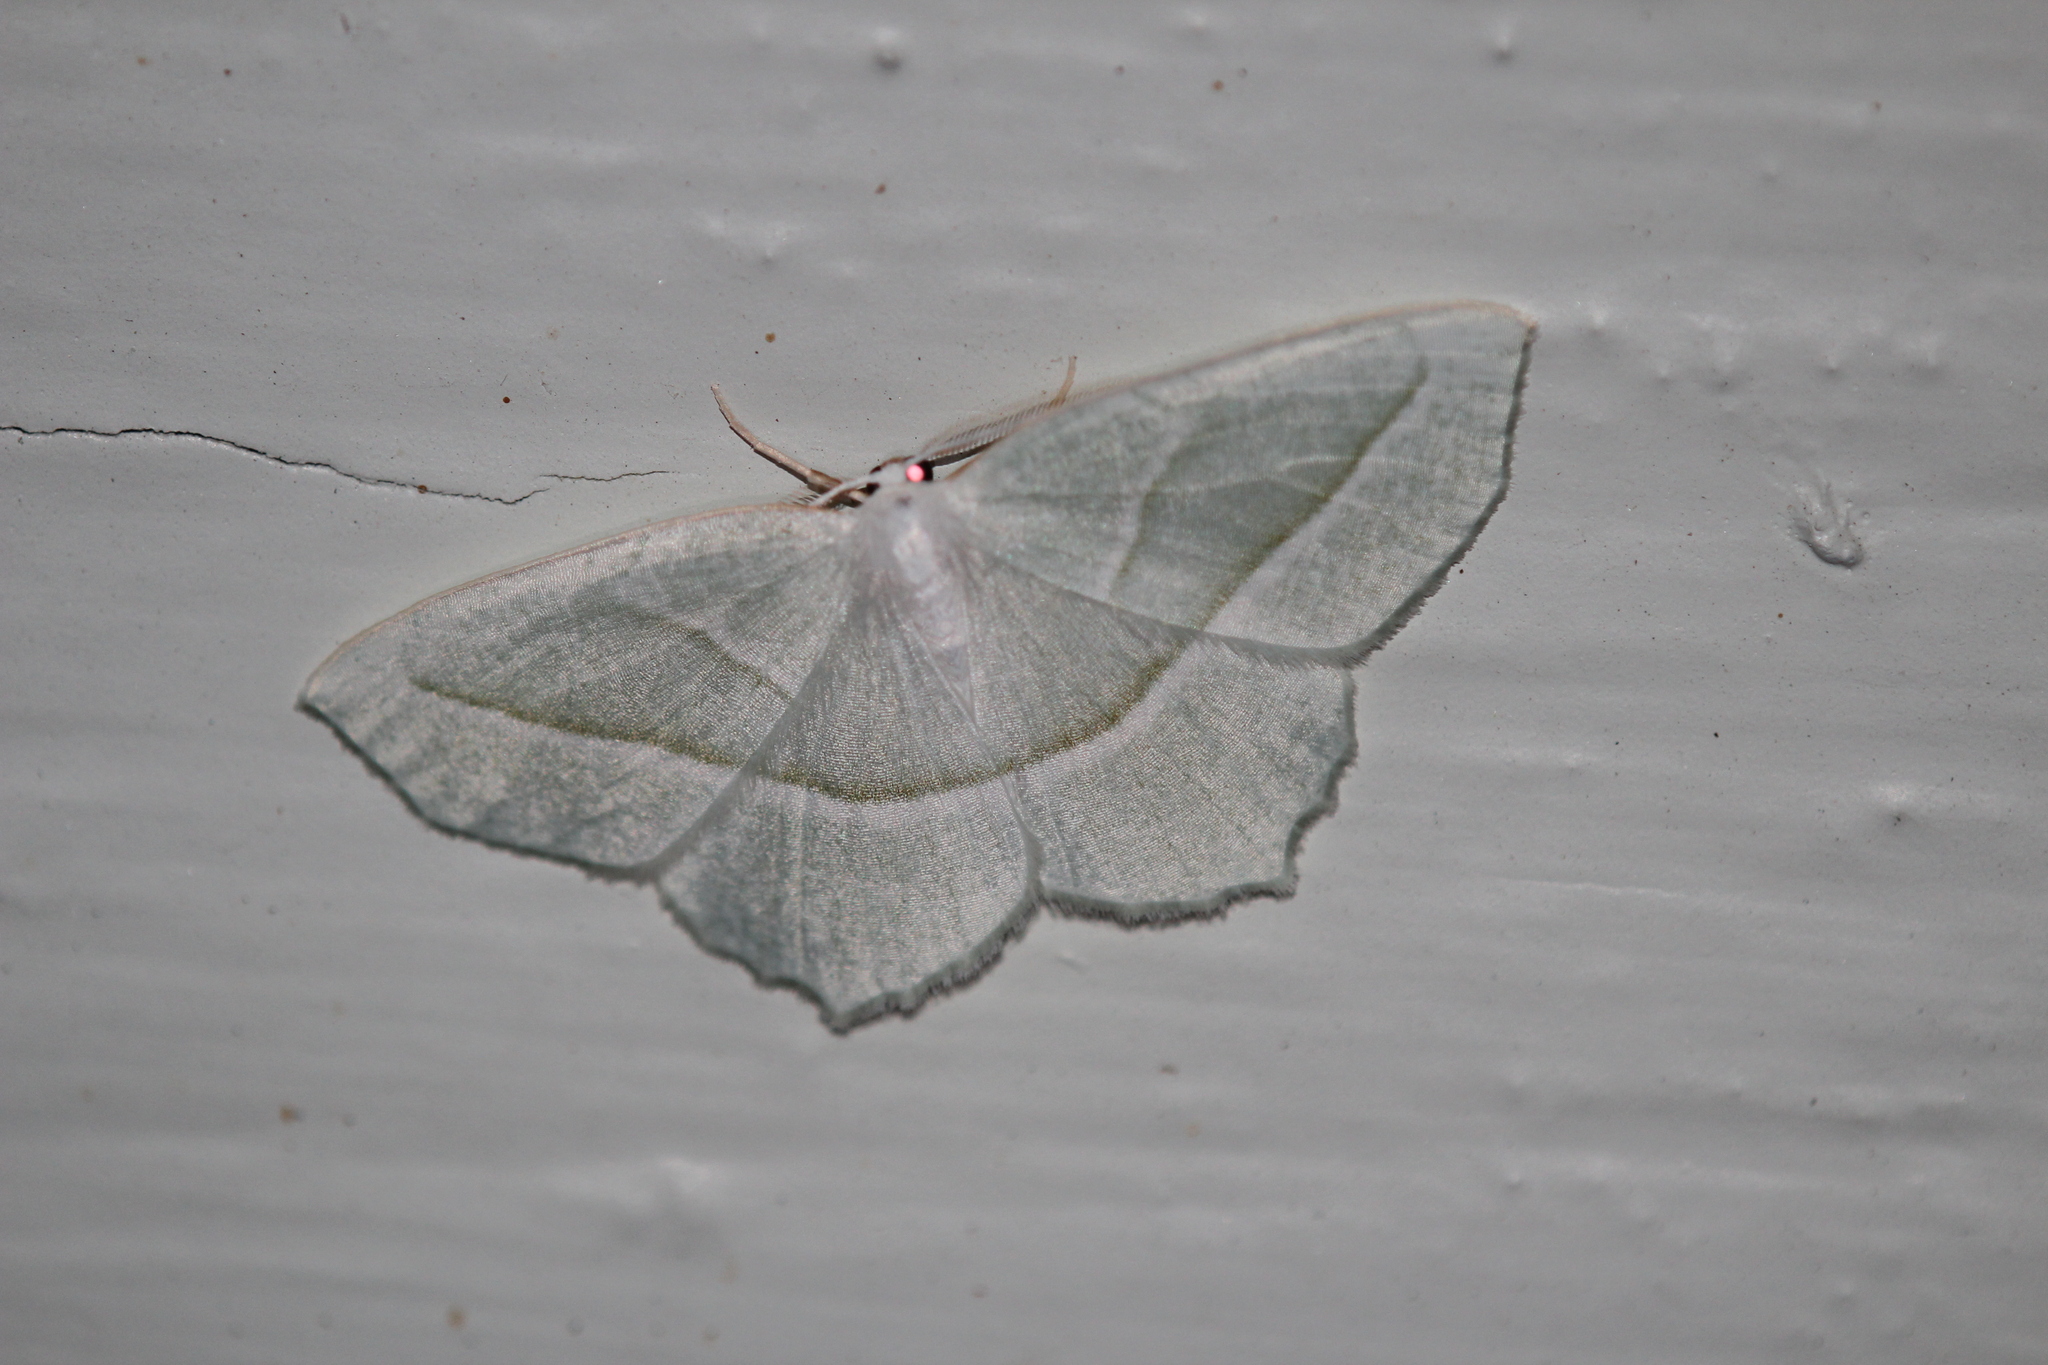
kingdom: Animalia
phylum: Arthropoda
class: Insecta
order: Lepidoptera
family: Geometridae
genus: Campaea
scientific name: Campaea perlata
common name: Fringed looper
